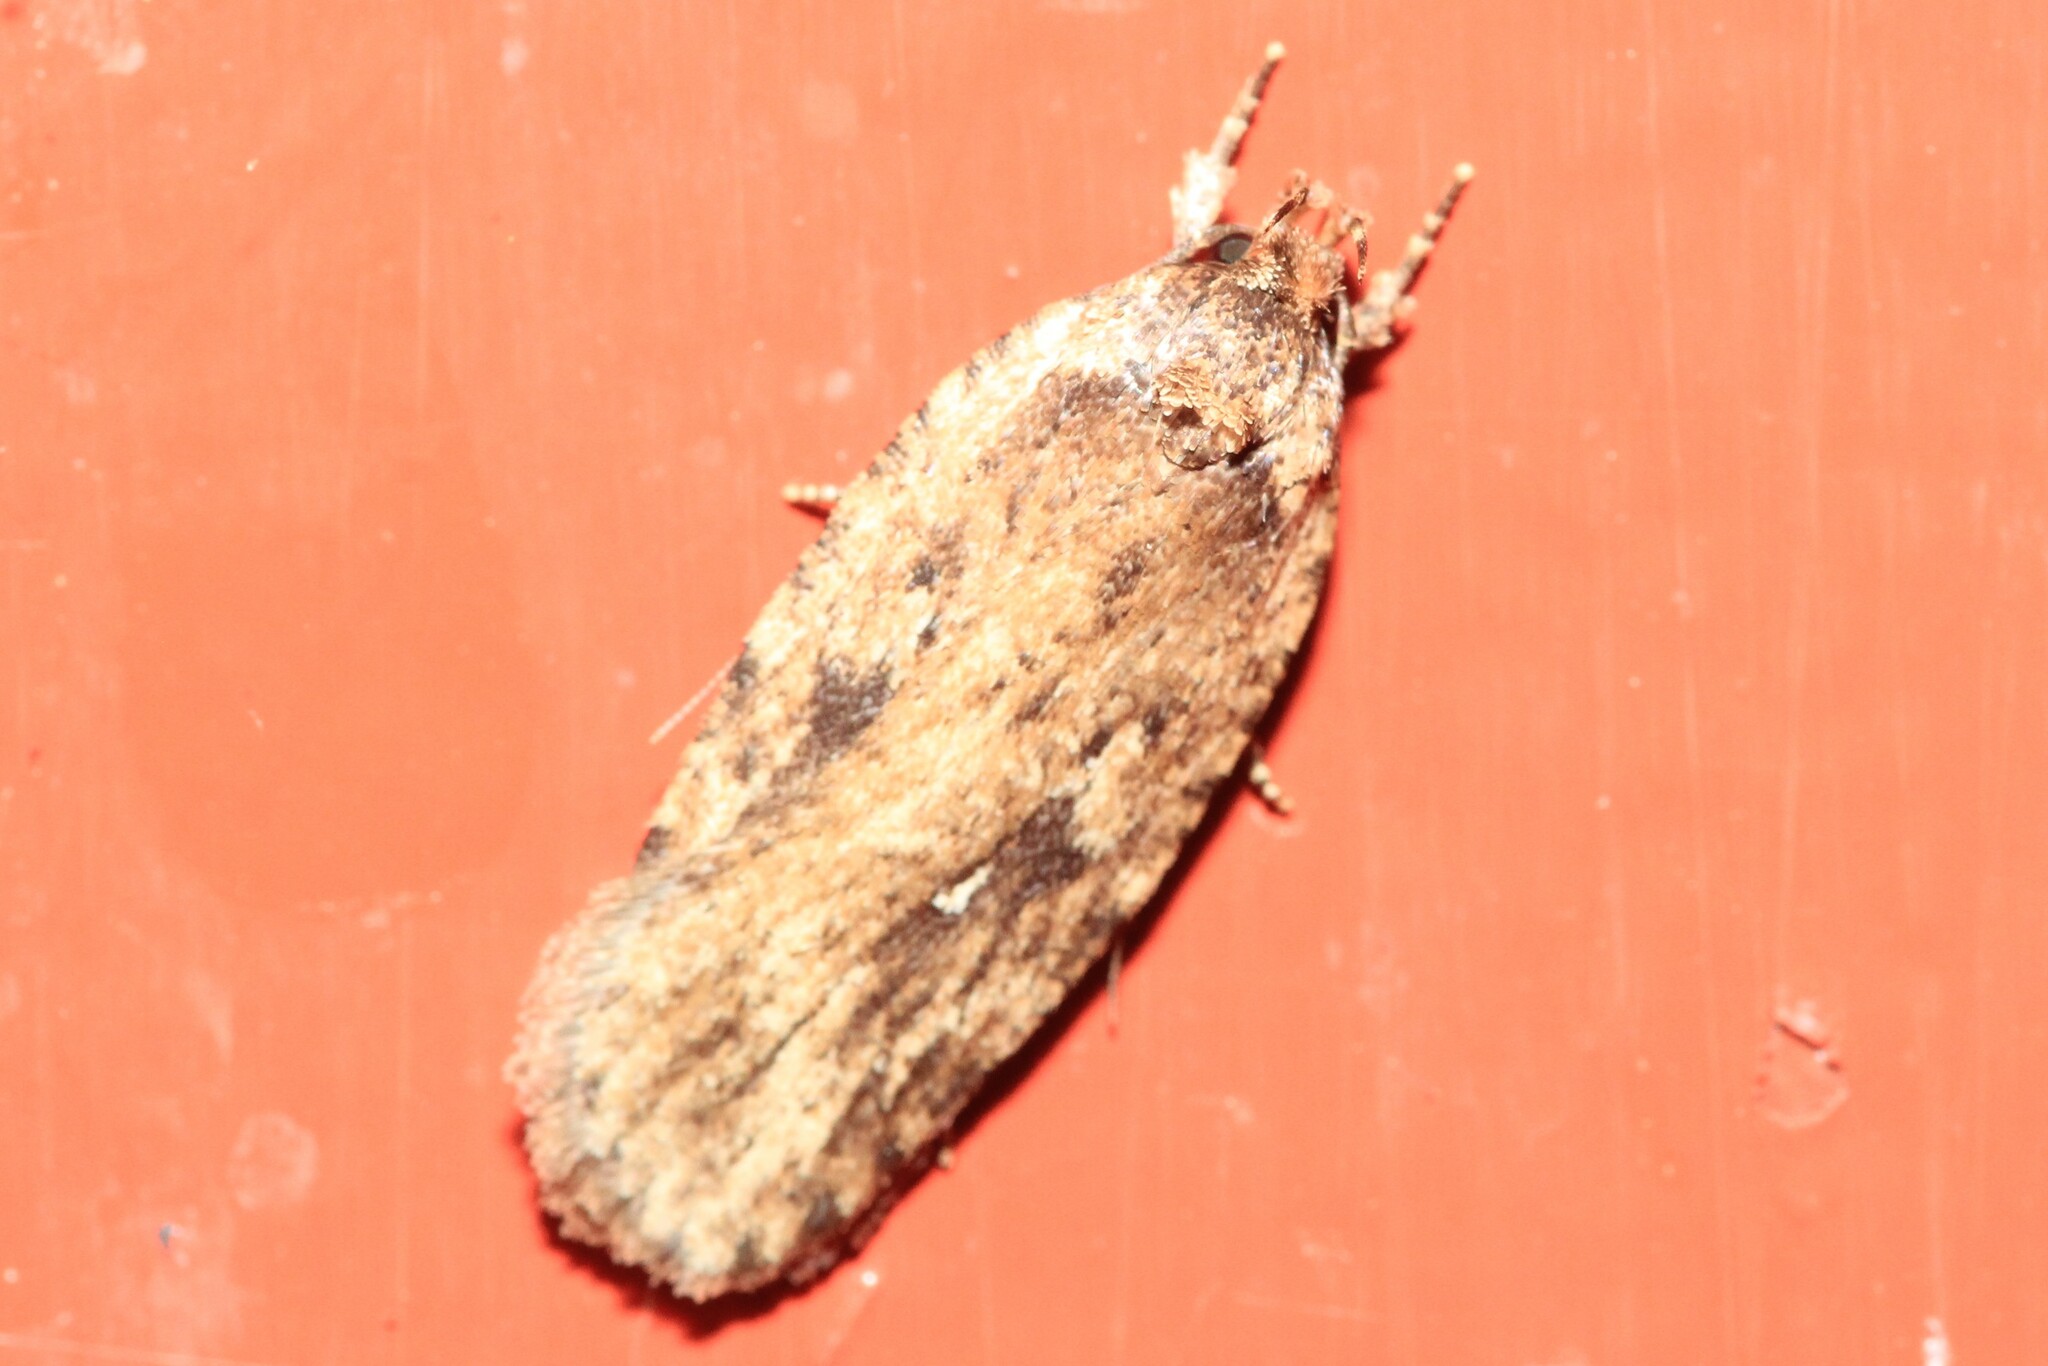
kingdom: Animalia
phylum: Arthropoda
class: Insecta
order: Lepidoptera
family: Depressariidae
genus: Agonopterix
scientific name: Agonopterix pulvipennella
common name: Goldenrod leafffolder
